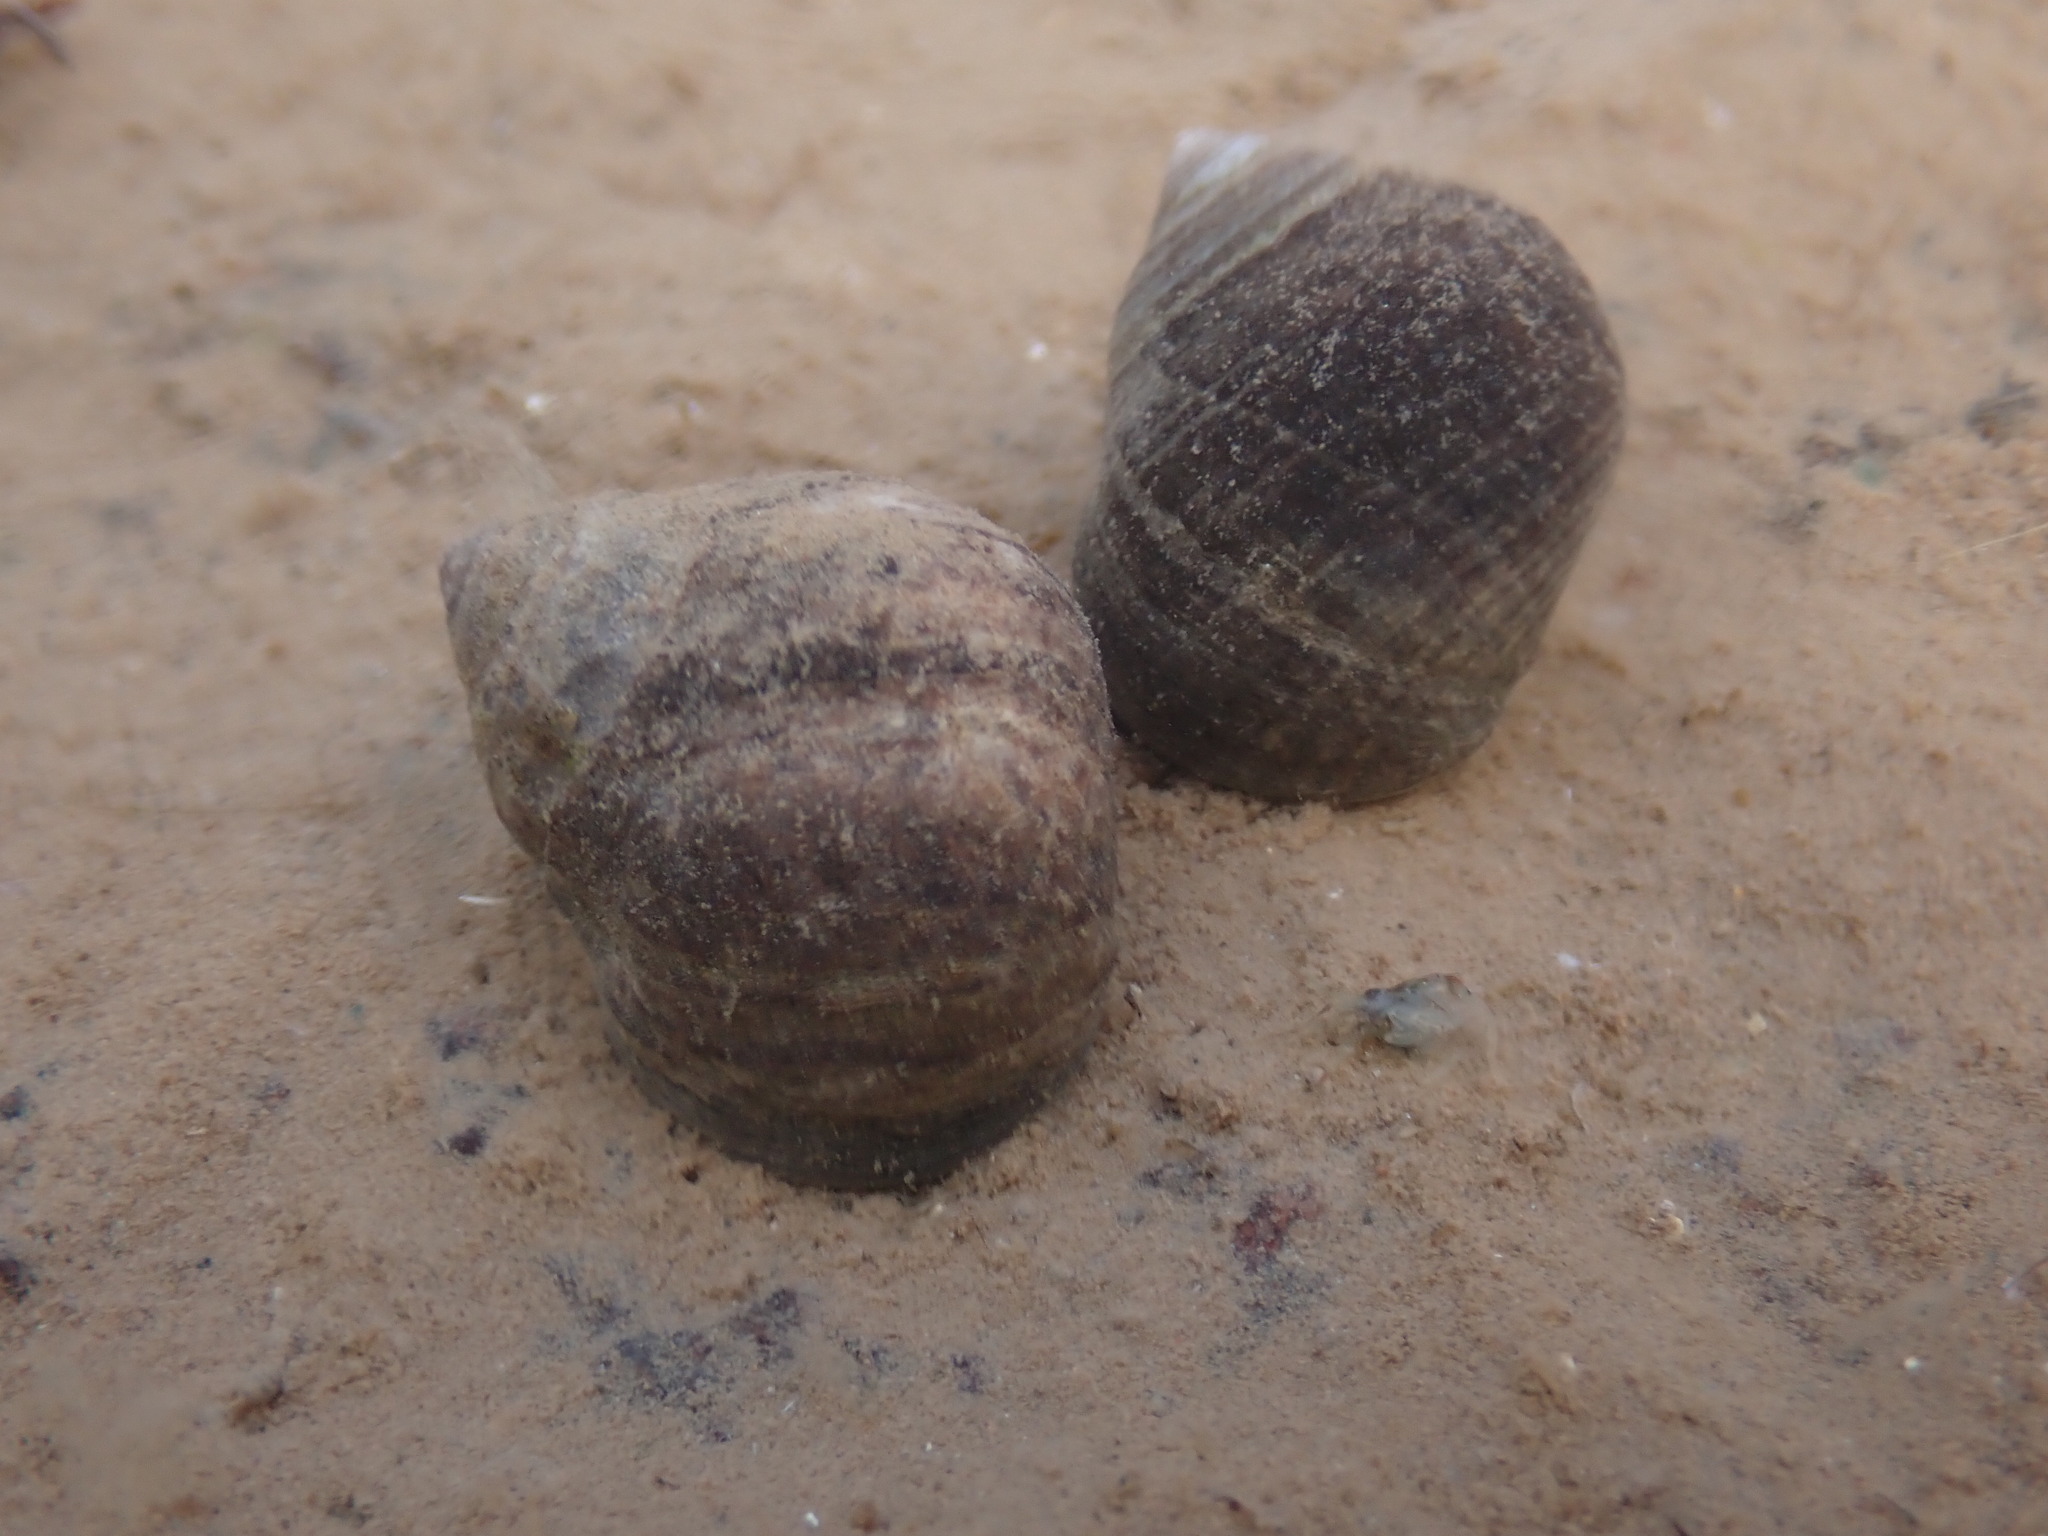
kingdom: Animalia
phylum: Mollusca
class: Gastropoda
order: Littorinimorpha
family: Littorinidae
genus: Littorina
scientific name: Littorina littorea
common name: Common periwinkle
